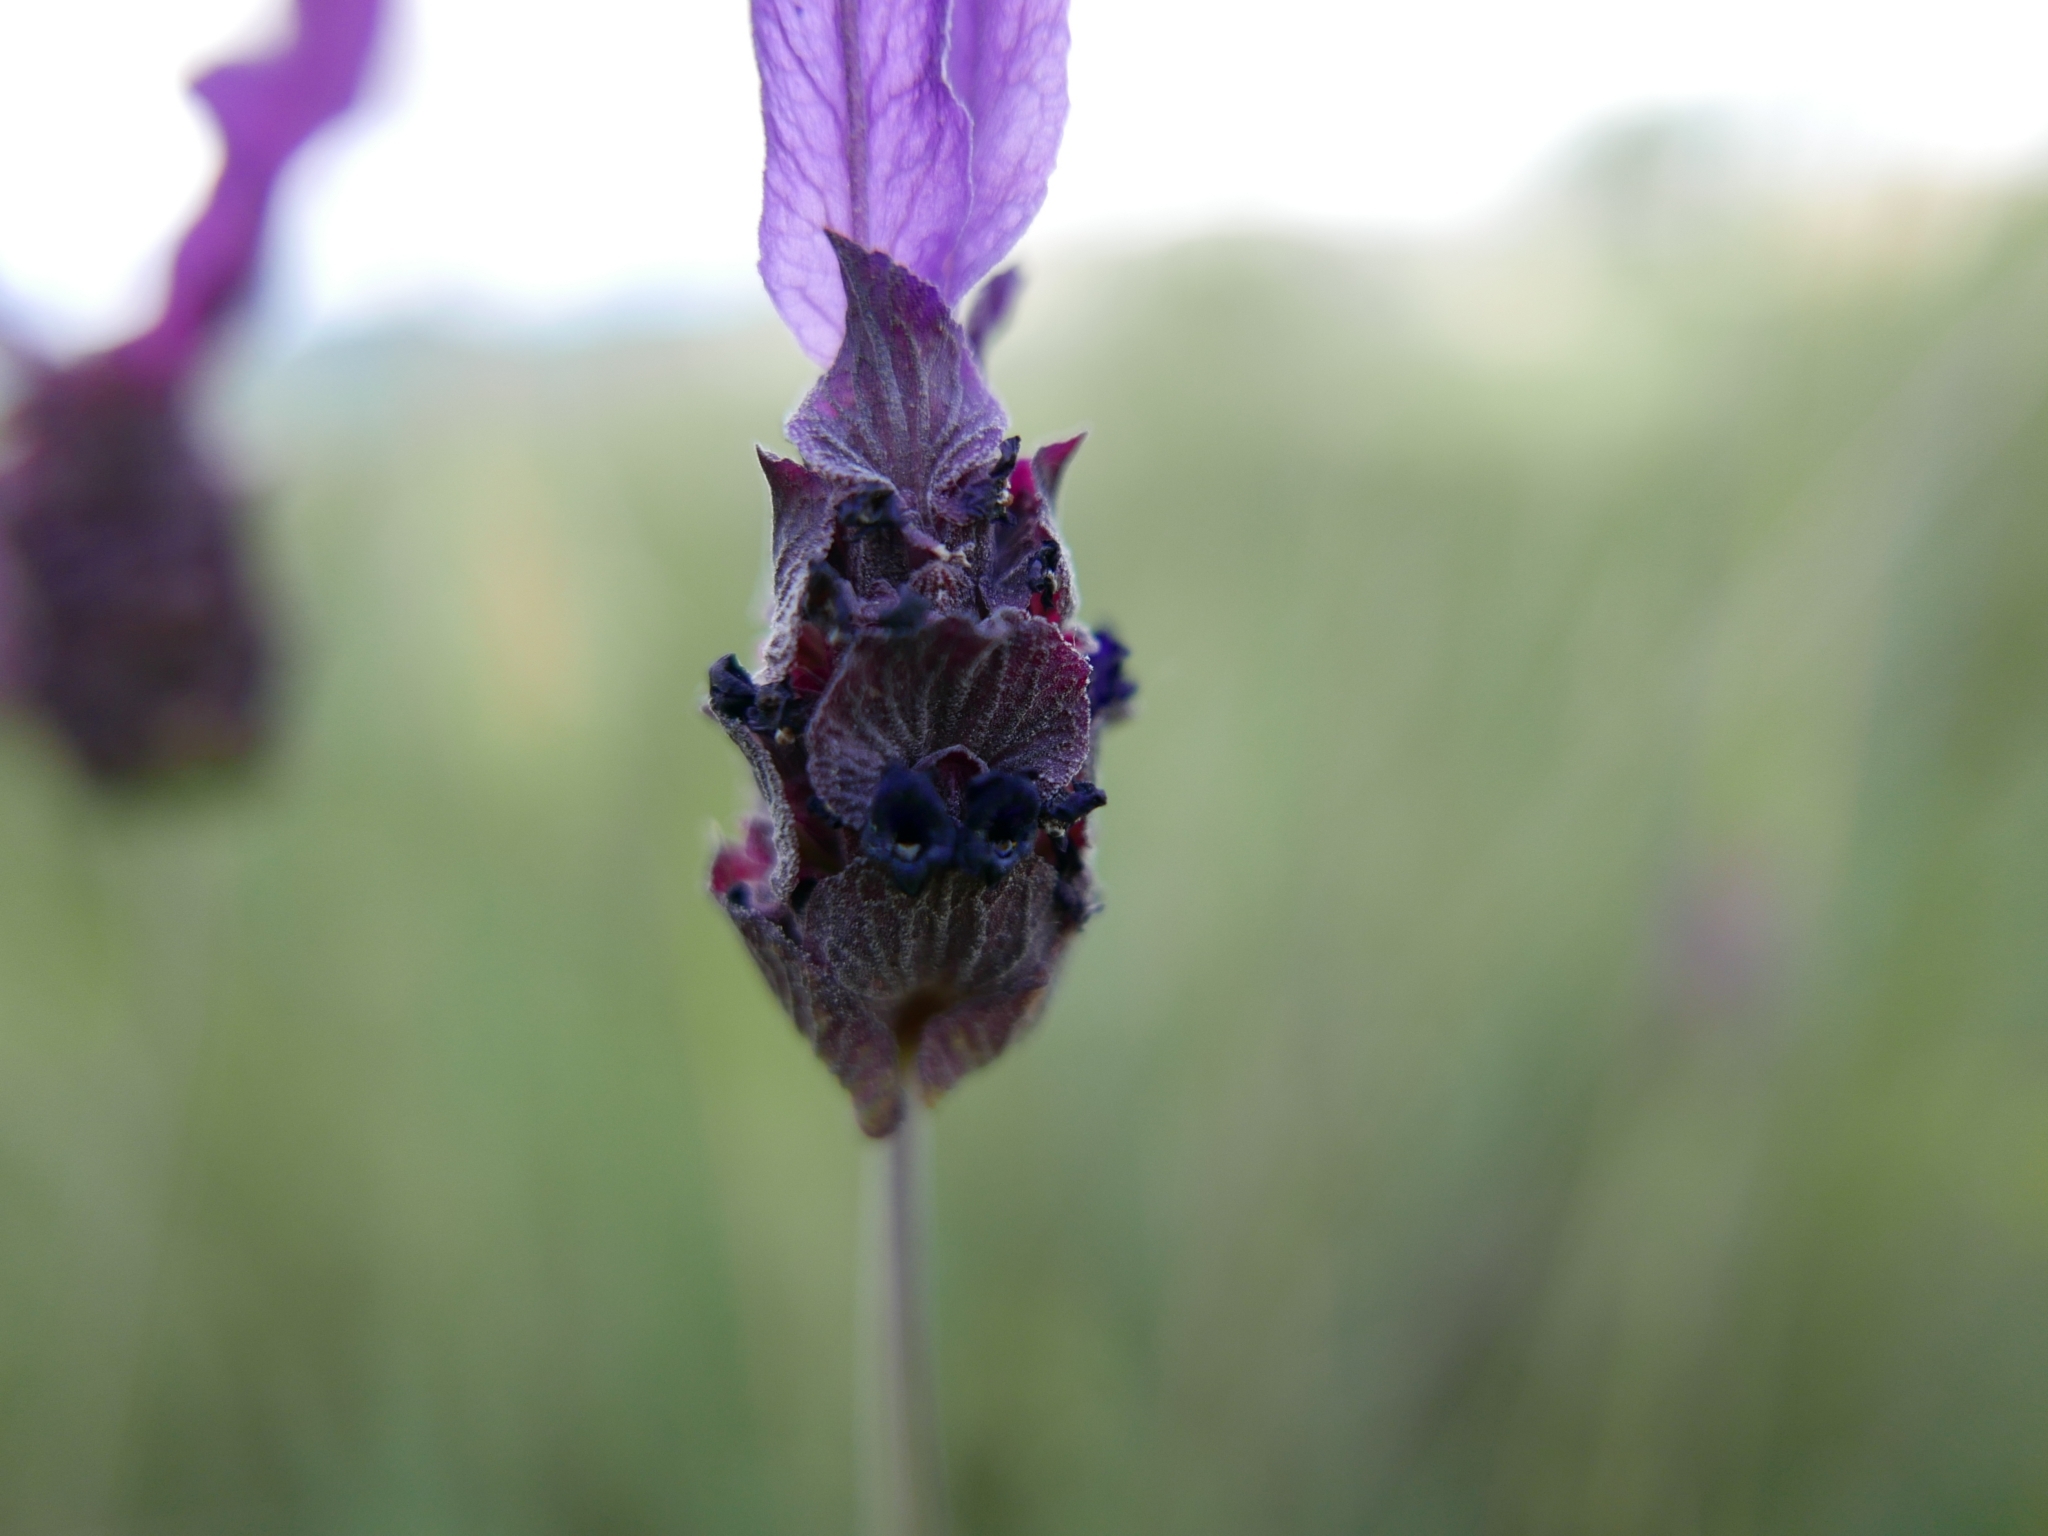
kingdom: Plantae
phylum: Tracheophyta
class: Magnoliopsida
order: Lamiales
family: Lamiaceae
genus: Lavandula
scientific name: Lavandula pedunculata
